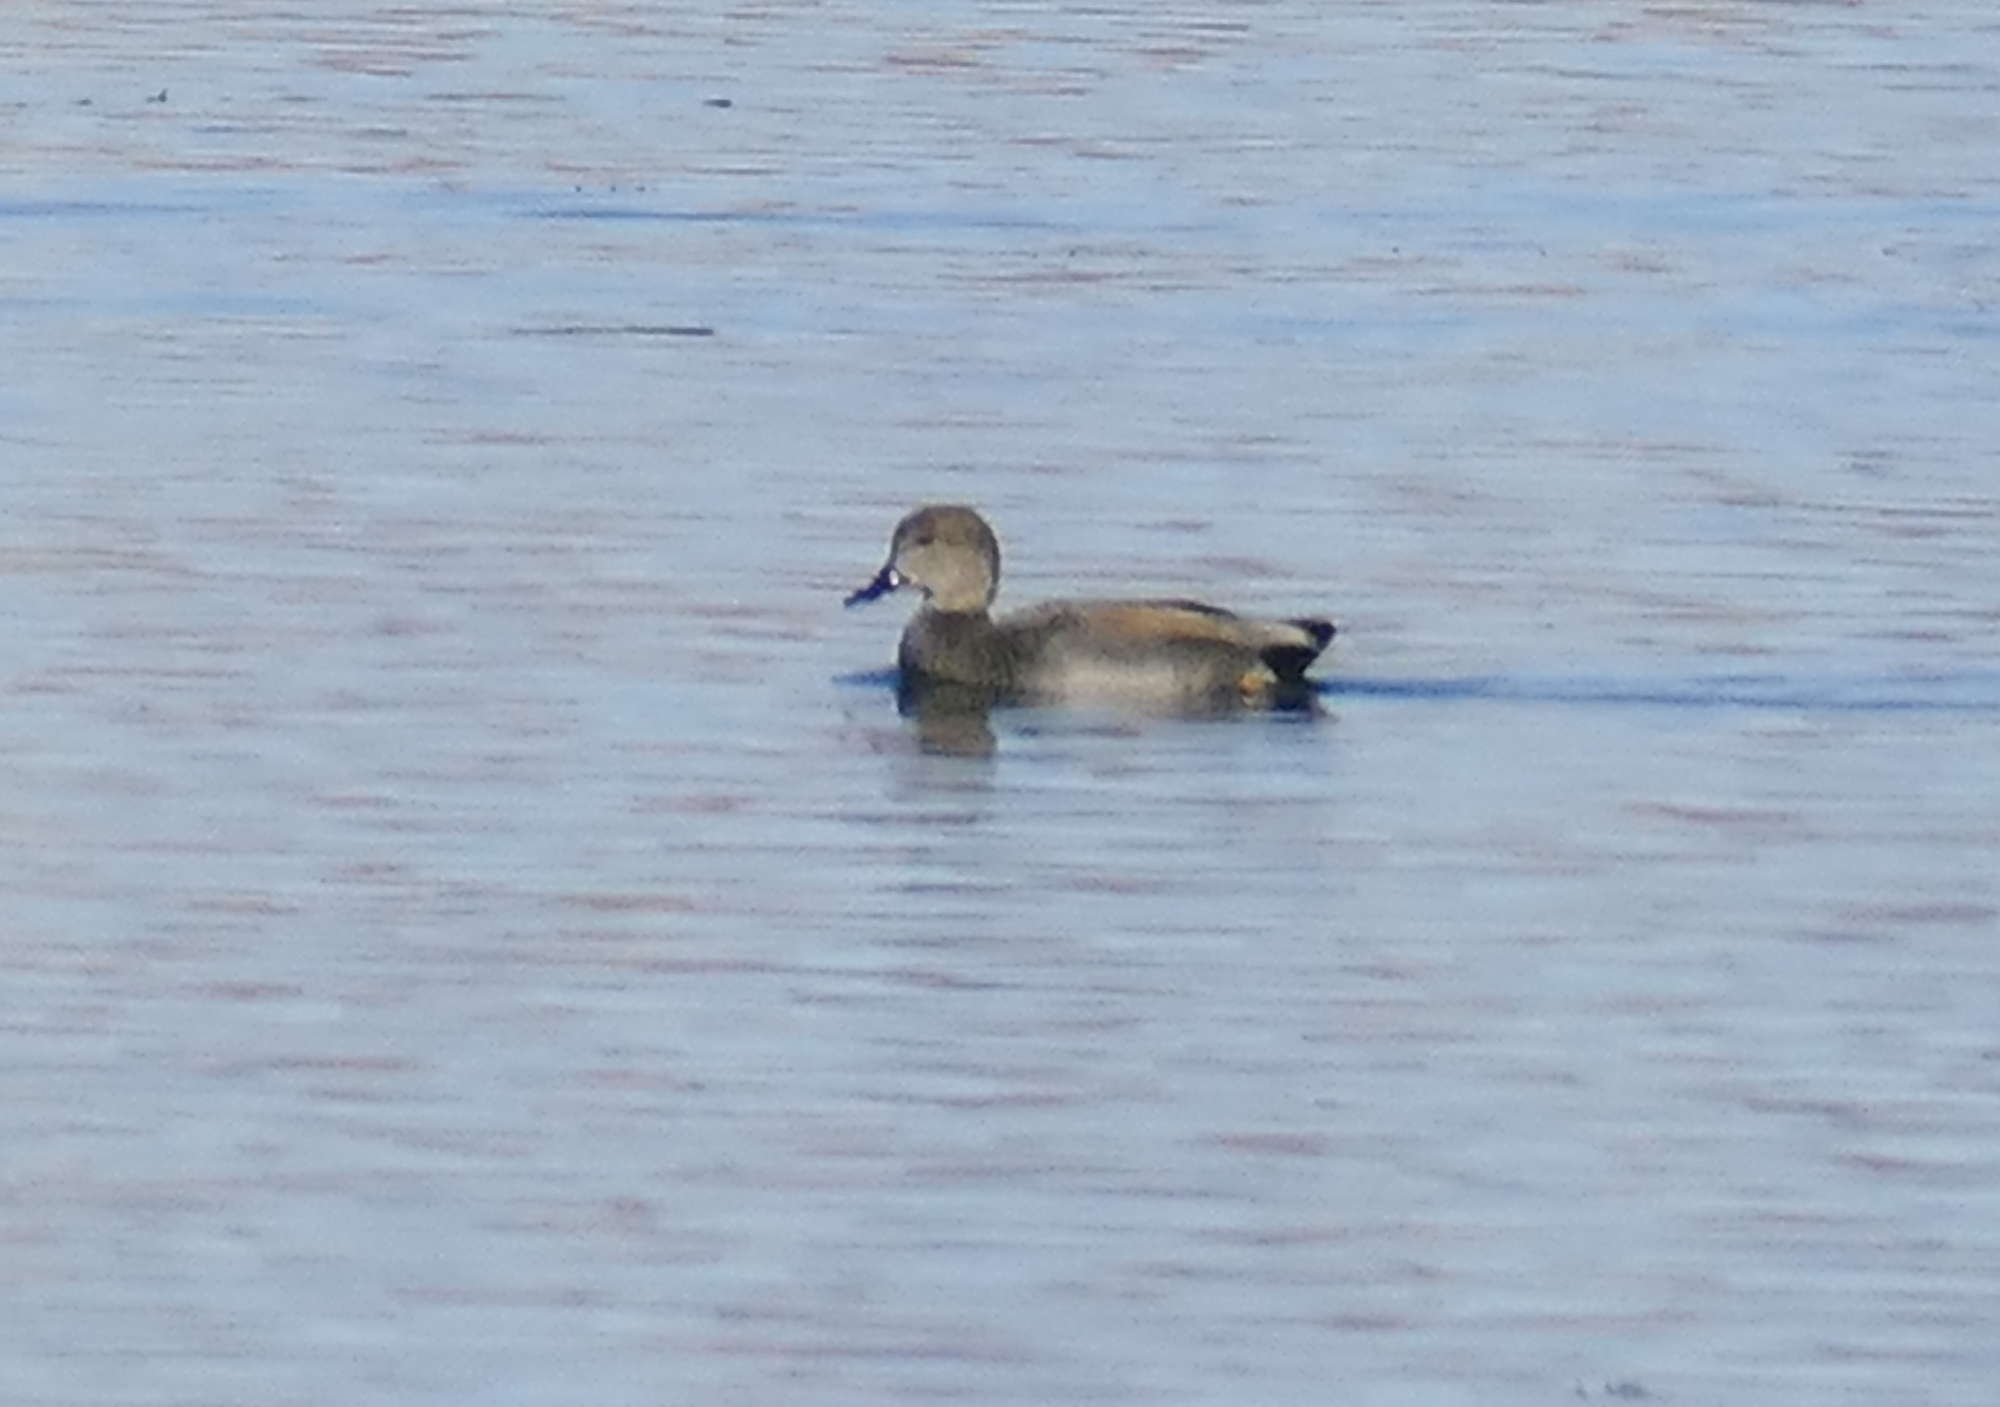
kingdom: Animalia
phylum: Chordata
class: Aves
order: Anseriformes
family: Anatidae
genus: Mareca
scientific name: Mareca strepera
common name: Gadwall
